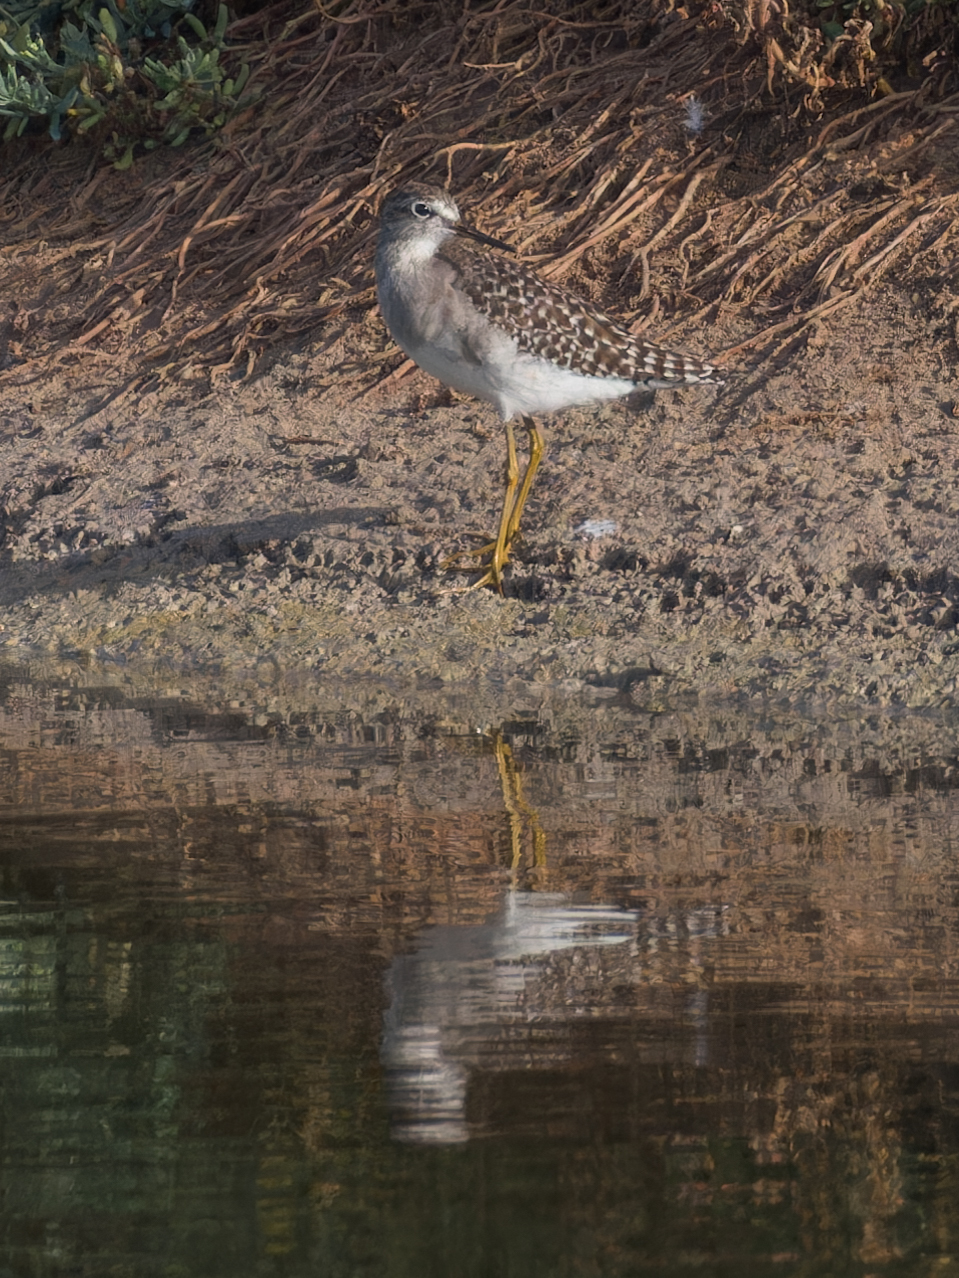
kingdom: Animalia
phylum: Chordata
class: Aves
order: Charadriiformes
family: Scolopacidae
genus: Tringa
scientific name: Tringa glareola
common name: Wood sandpiper
